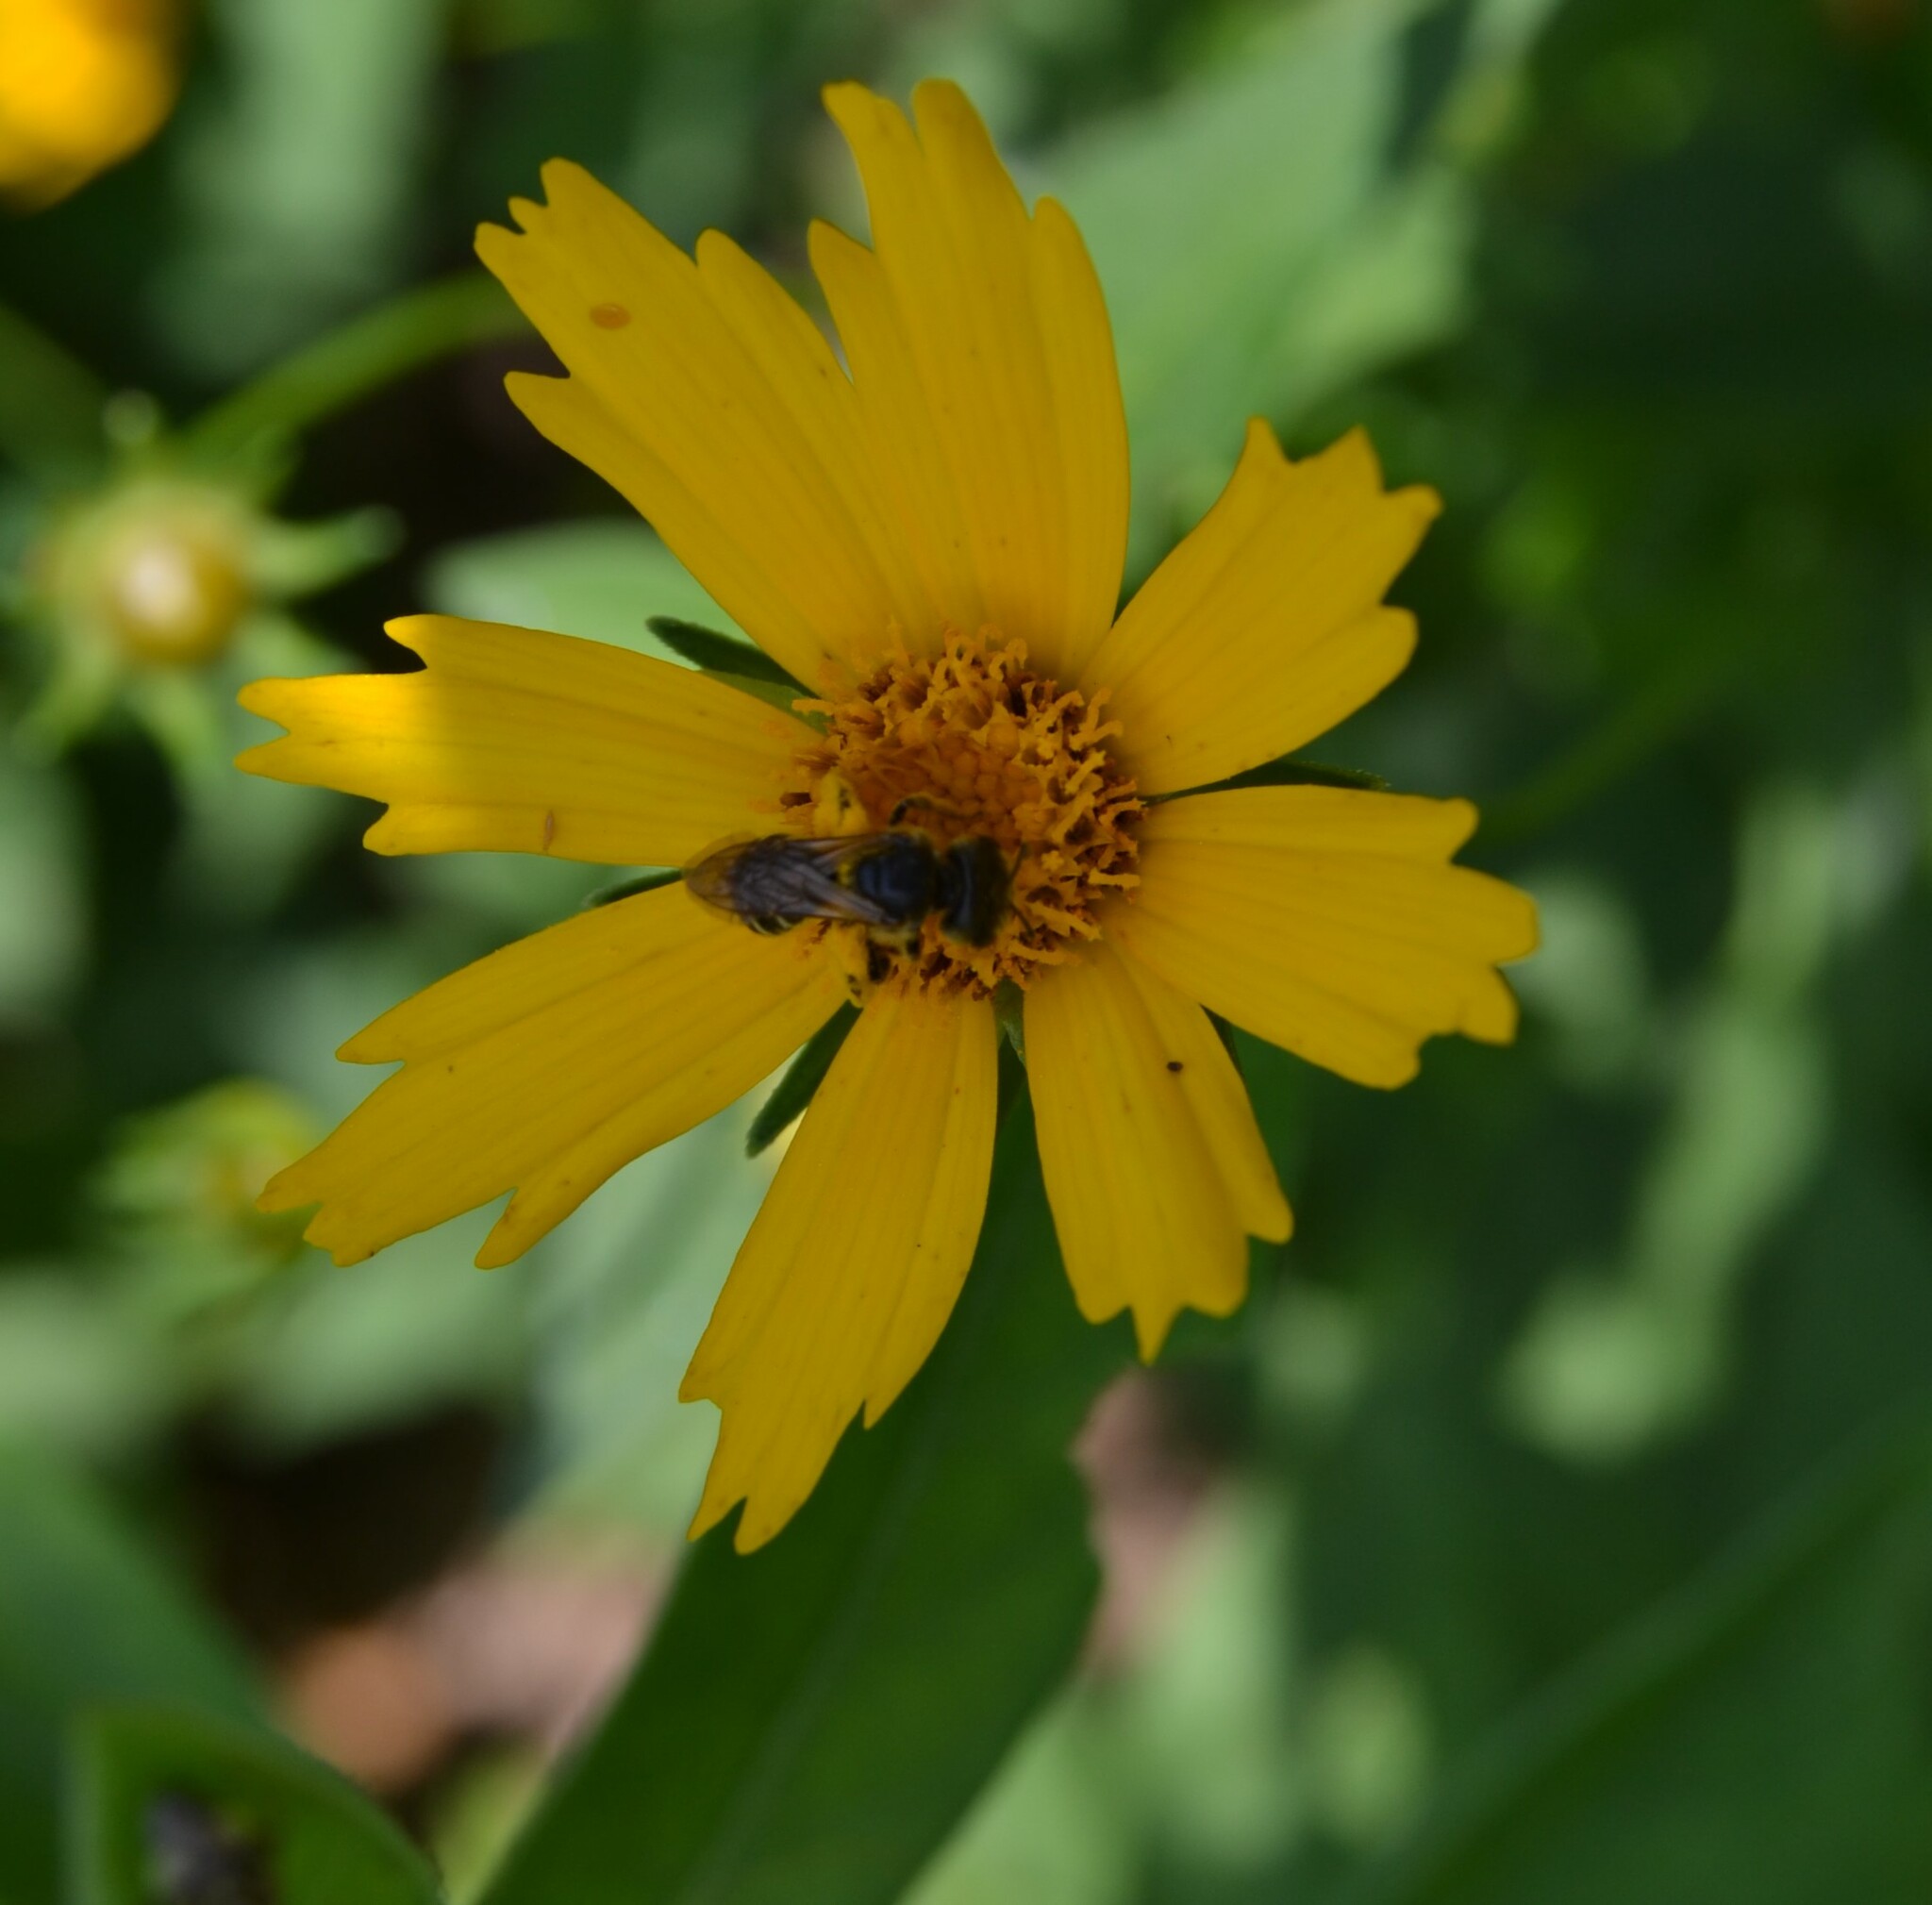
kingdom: Animalia
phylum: Arthropoda
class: Insecta
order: Hymenoptera
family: Halictidae
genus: Halictus
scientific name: Halictus ligatus
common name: Ligated furrow bee
